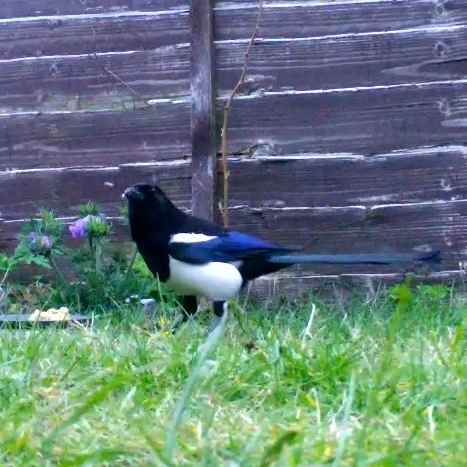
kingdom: Animalia
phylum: Chordata
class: Aves
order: Passeriformes
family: Corvidae
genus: Pica
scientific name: Pica pica
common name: Eurasian magpie
